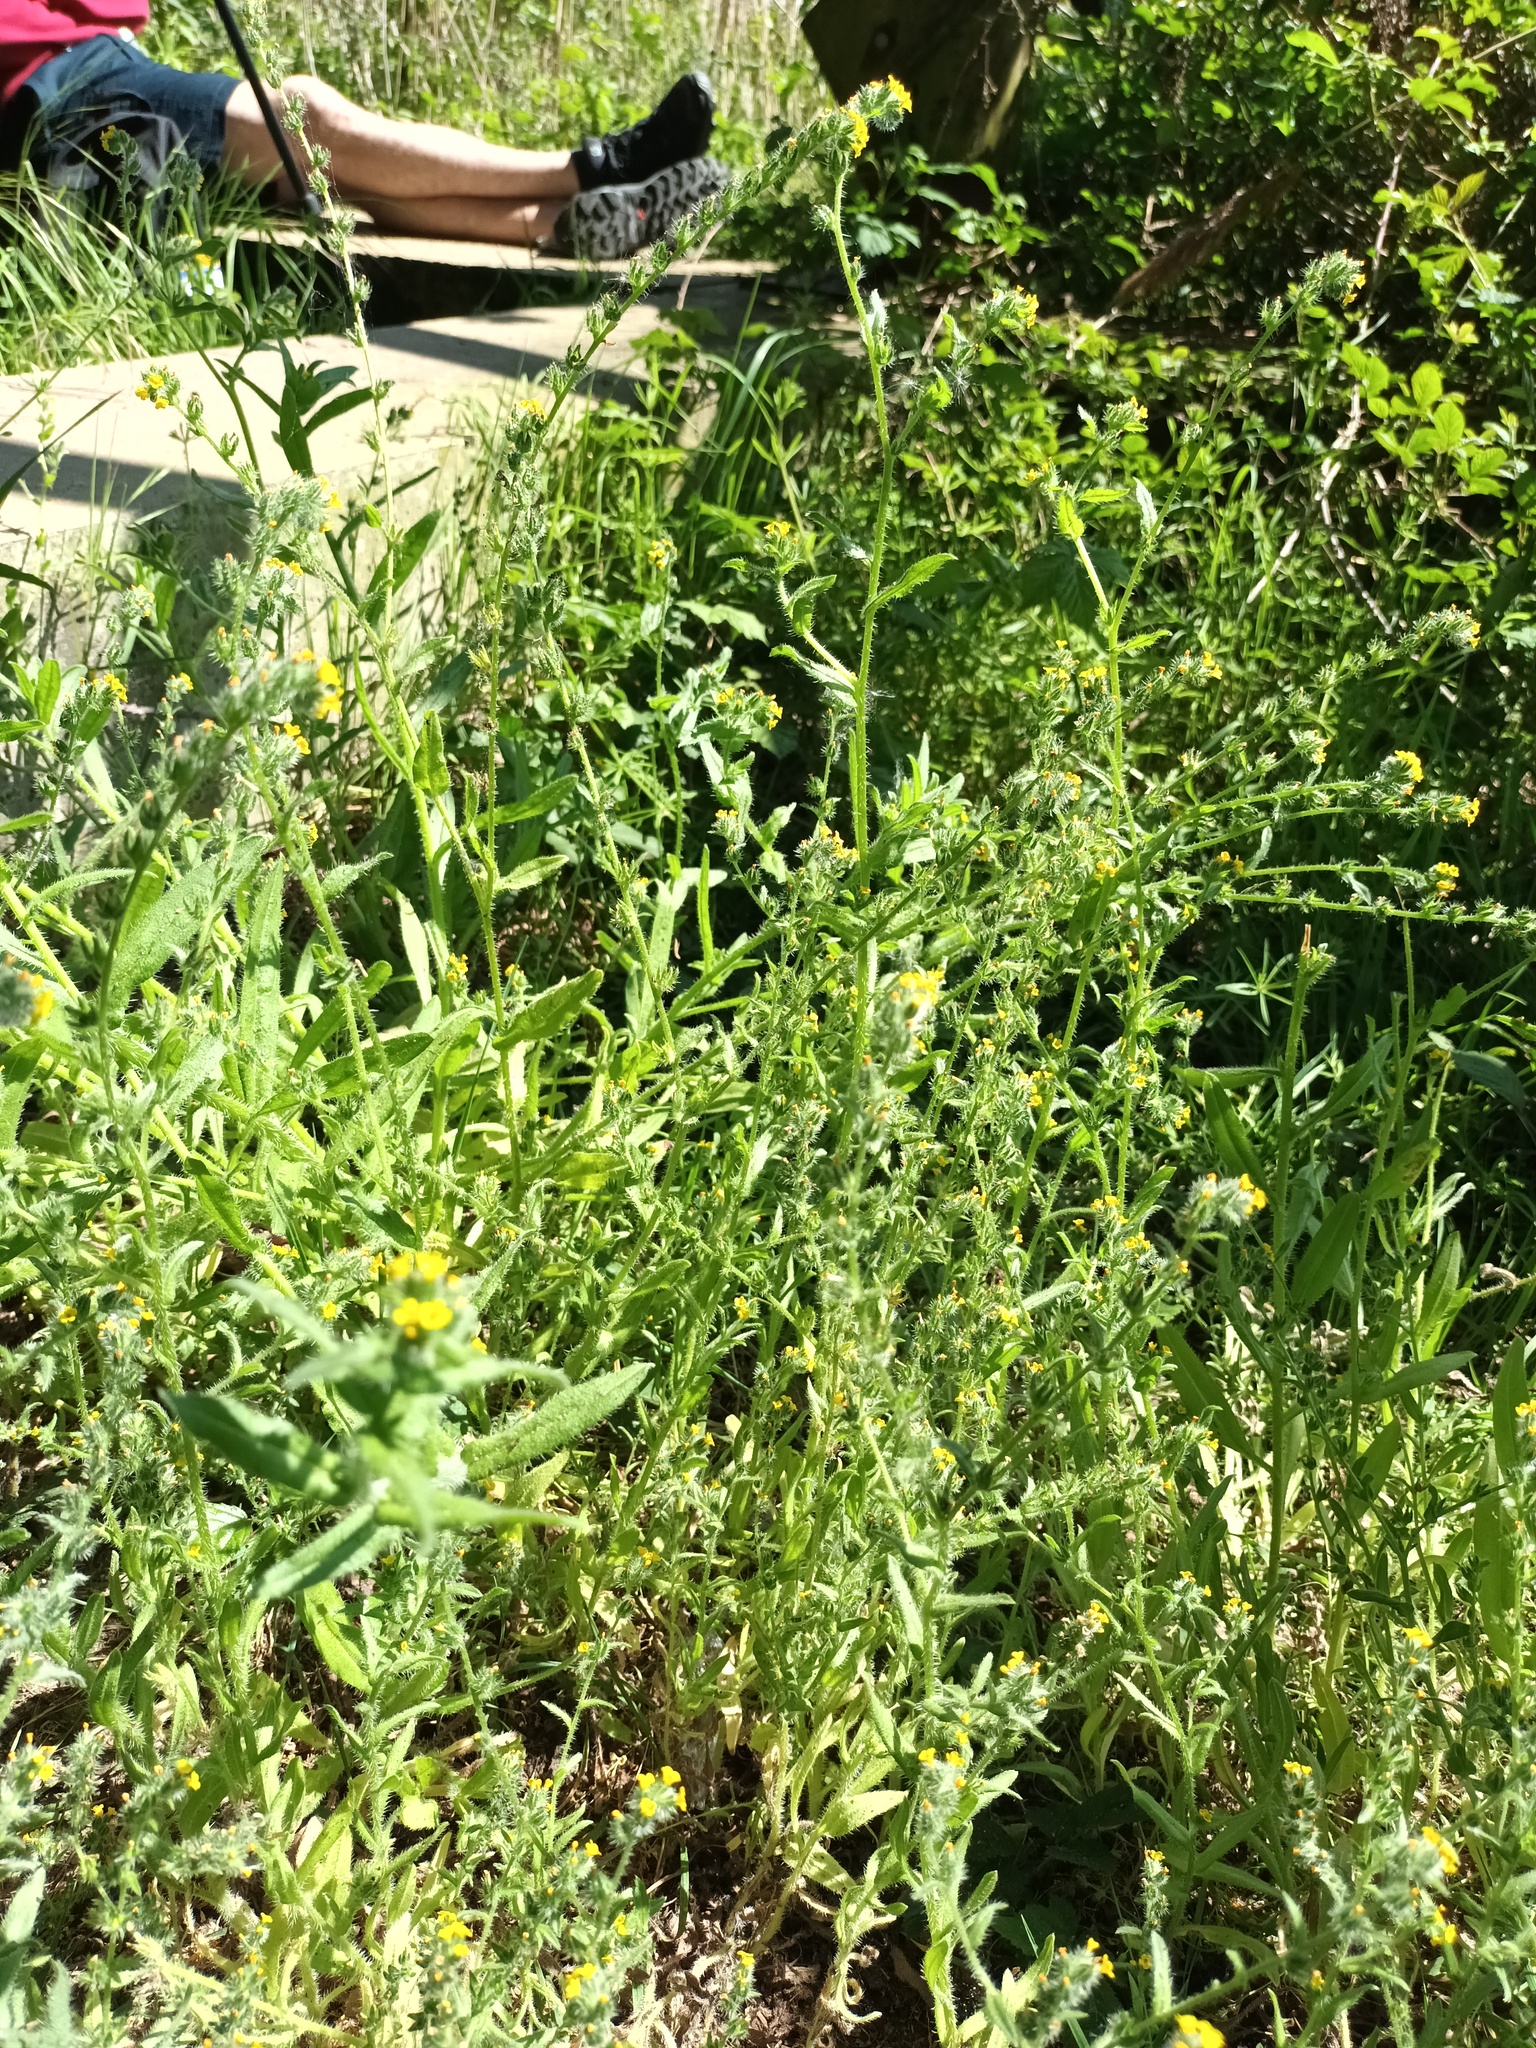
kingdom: Plantae
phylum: Tracheophyta
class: Magnoliopsida
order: Boraginales
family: Boraginaceae
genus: Amsinckia
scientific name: Amsinckia menziesii
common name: Menzies' fiddleneck
